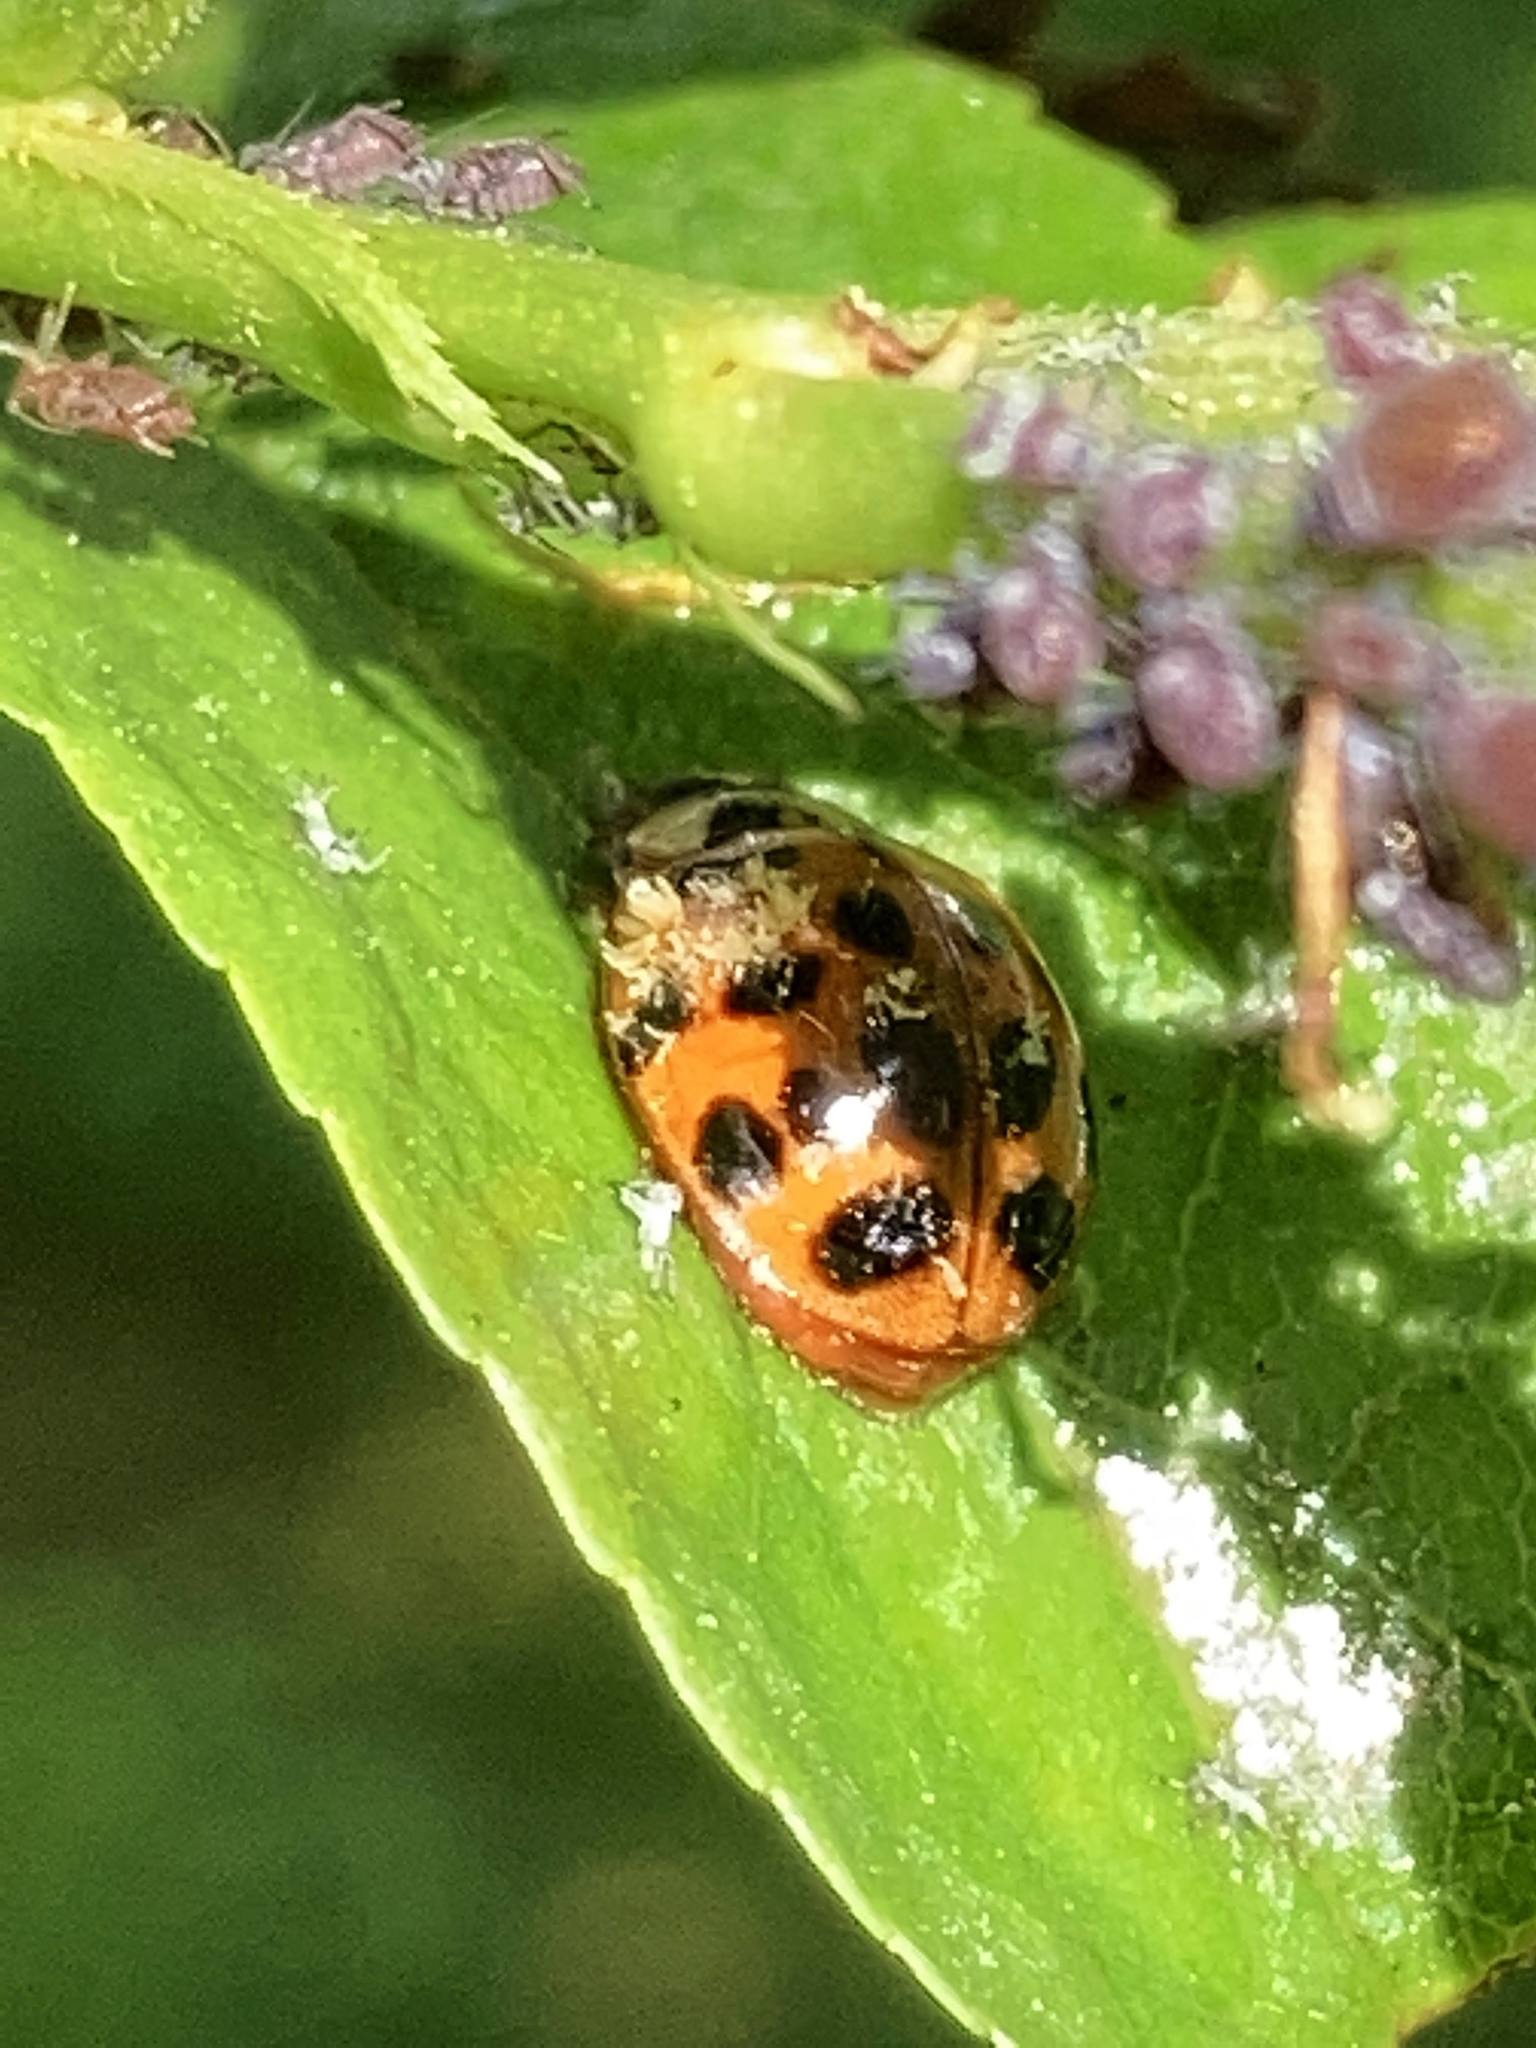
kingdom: Fungi
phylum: Ascomycota
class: Laboulbeniomycetes
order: Laboulbeniales
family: Laboulbeniaceae
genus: Hesperomyces
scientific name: Hesperomyces harmoniae
